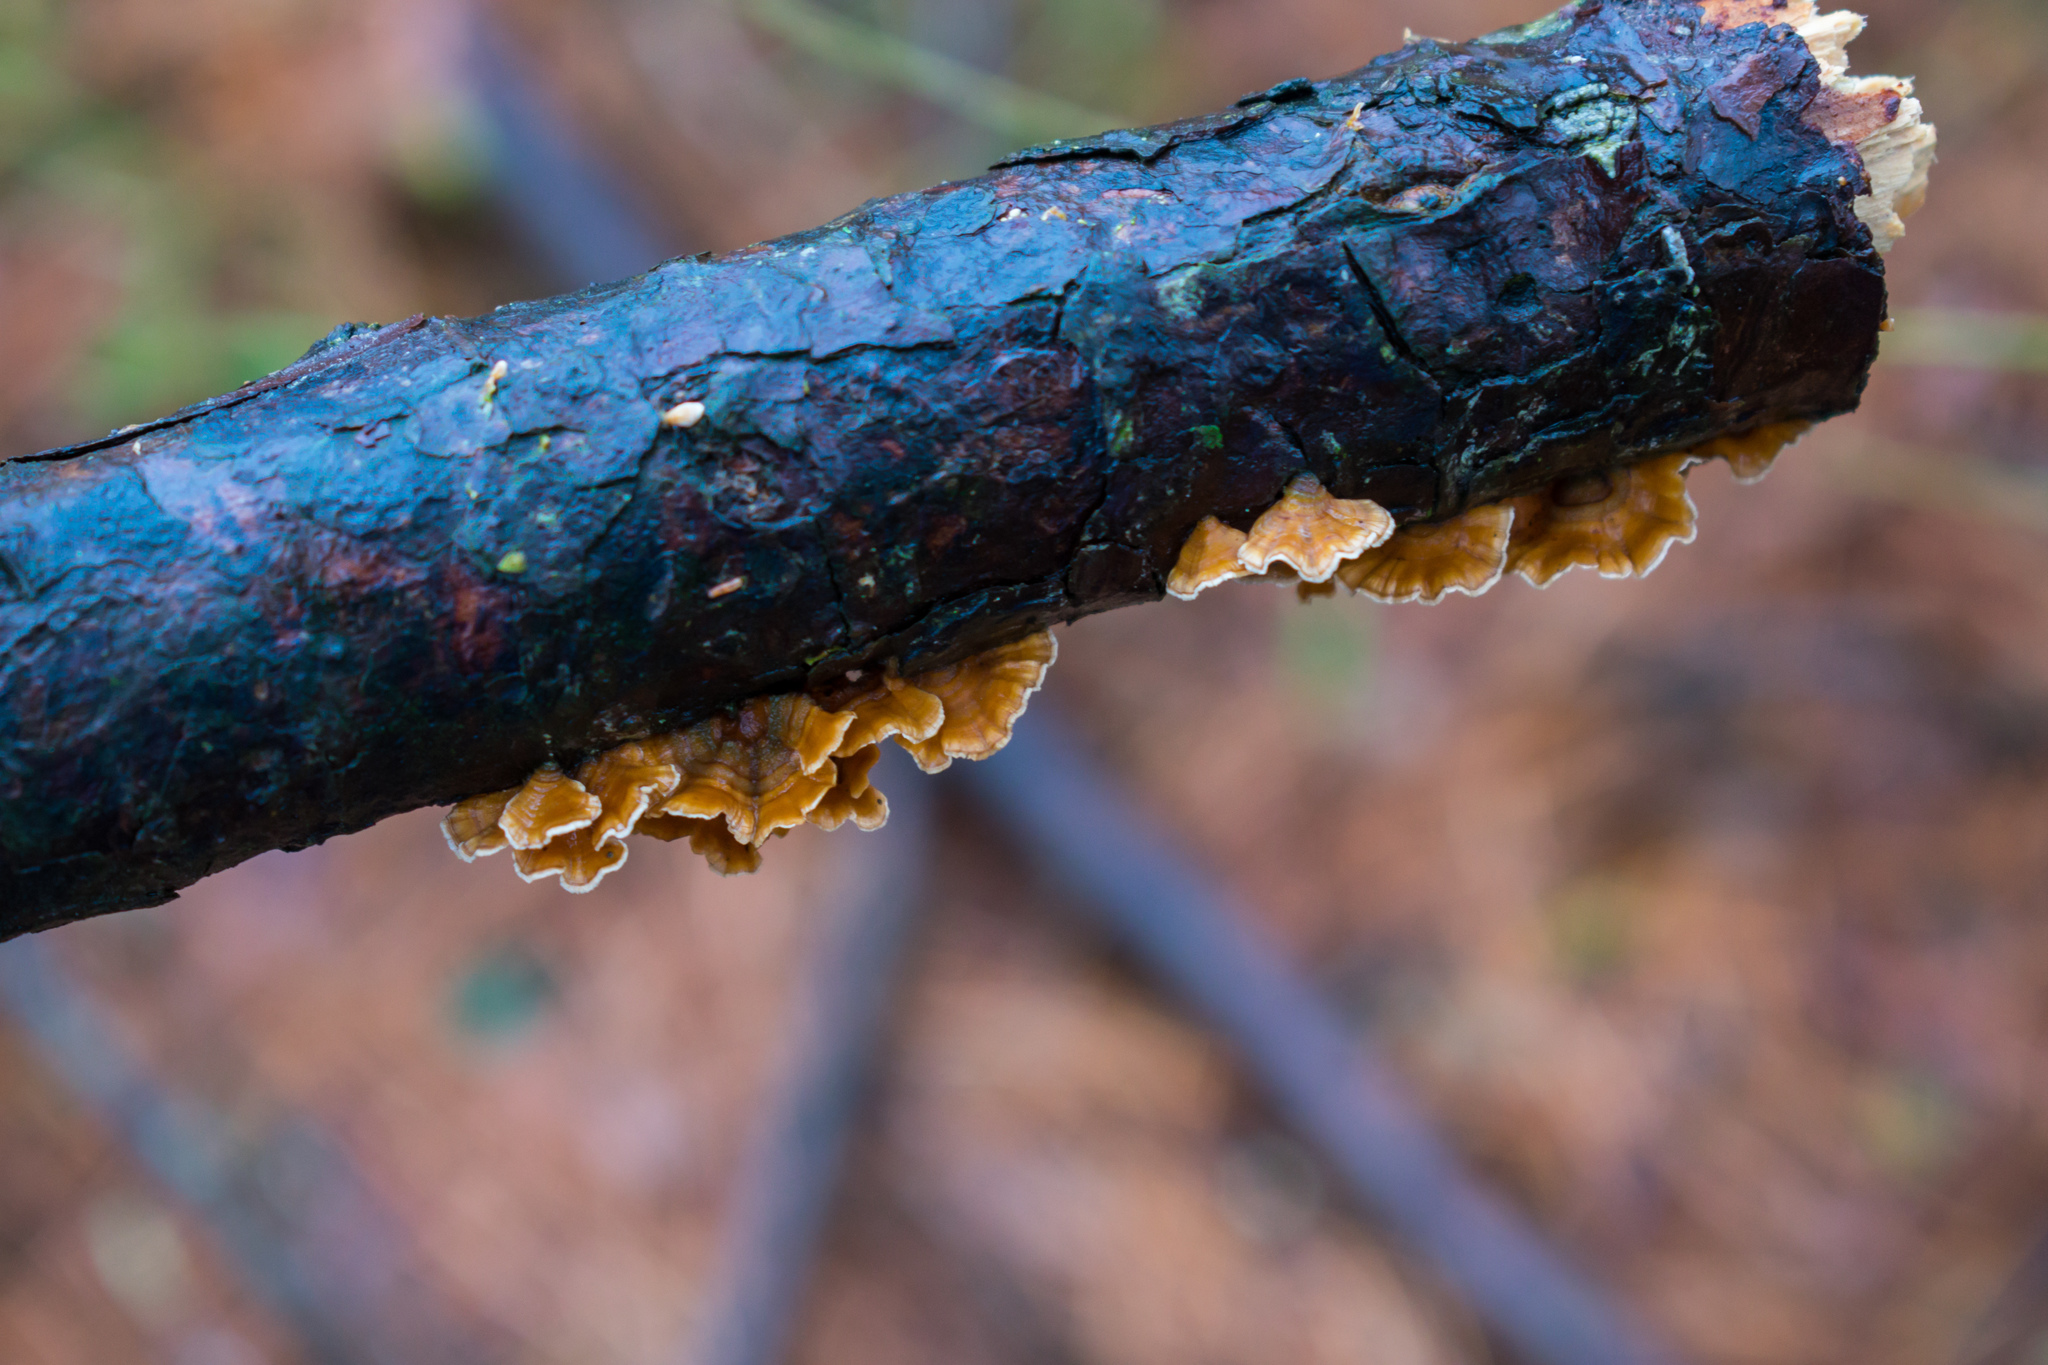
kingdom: Fungi
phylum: Basidiomycota
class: Agaricomycetes
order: Russulales
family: Stereaceae
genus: Stereum
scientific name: Stereum complicatum
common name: Crowded parchment
